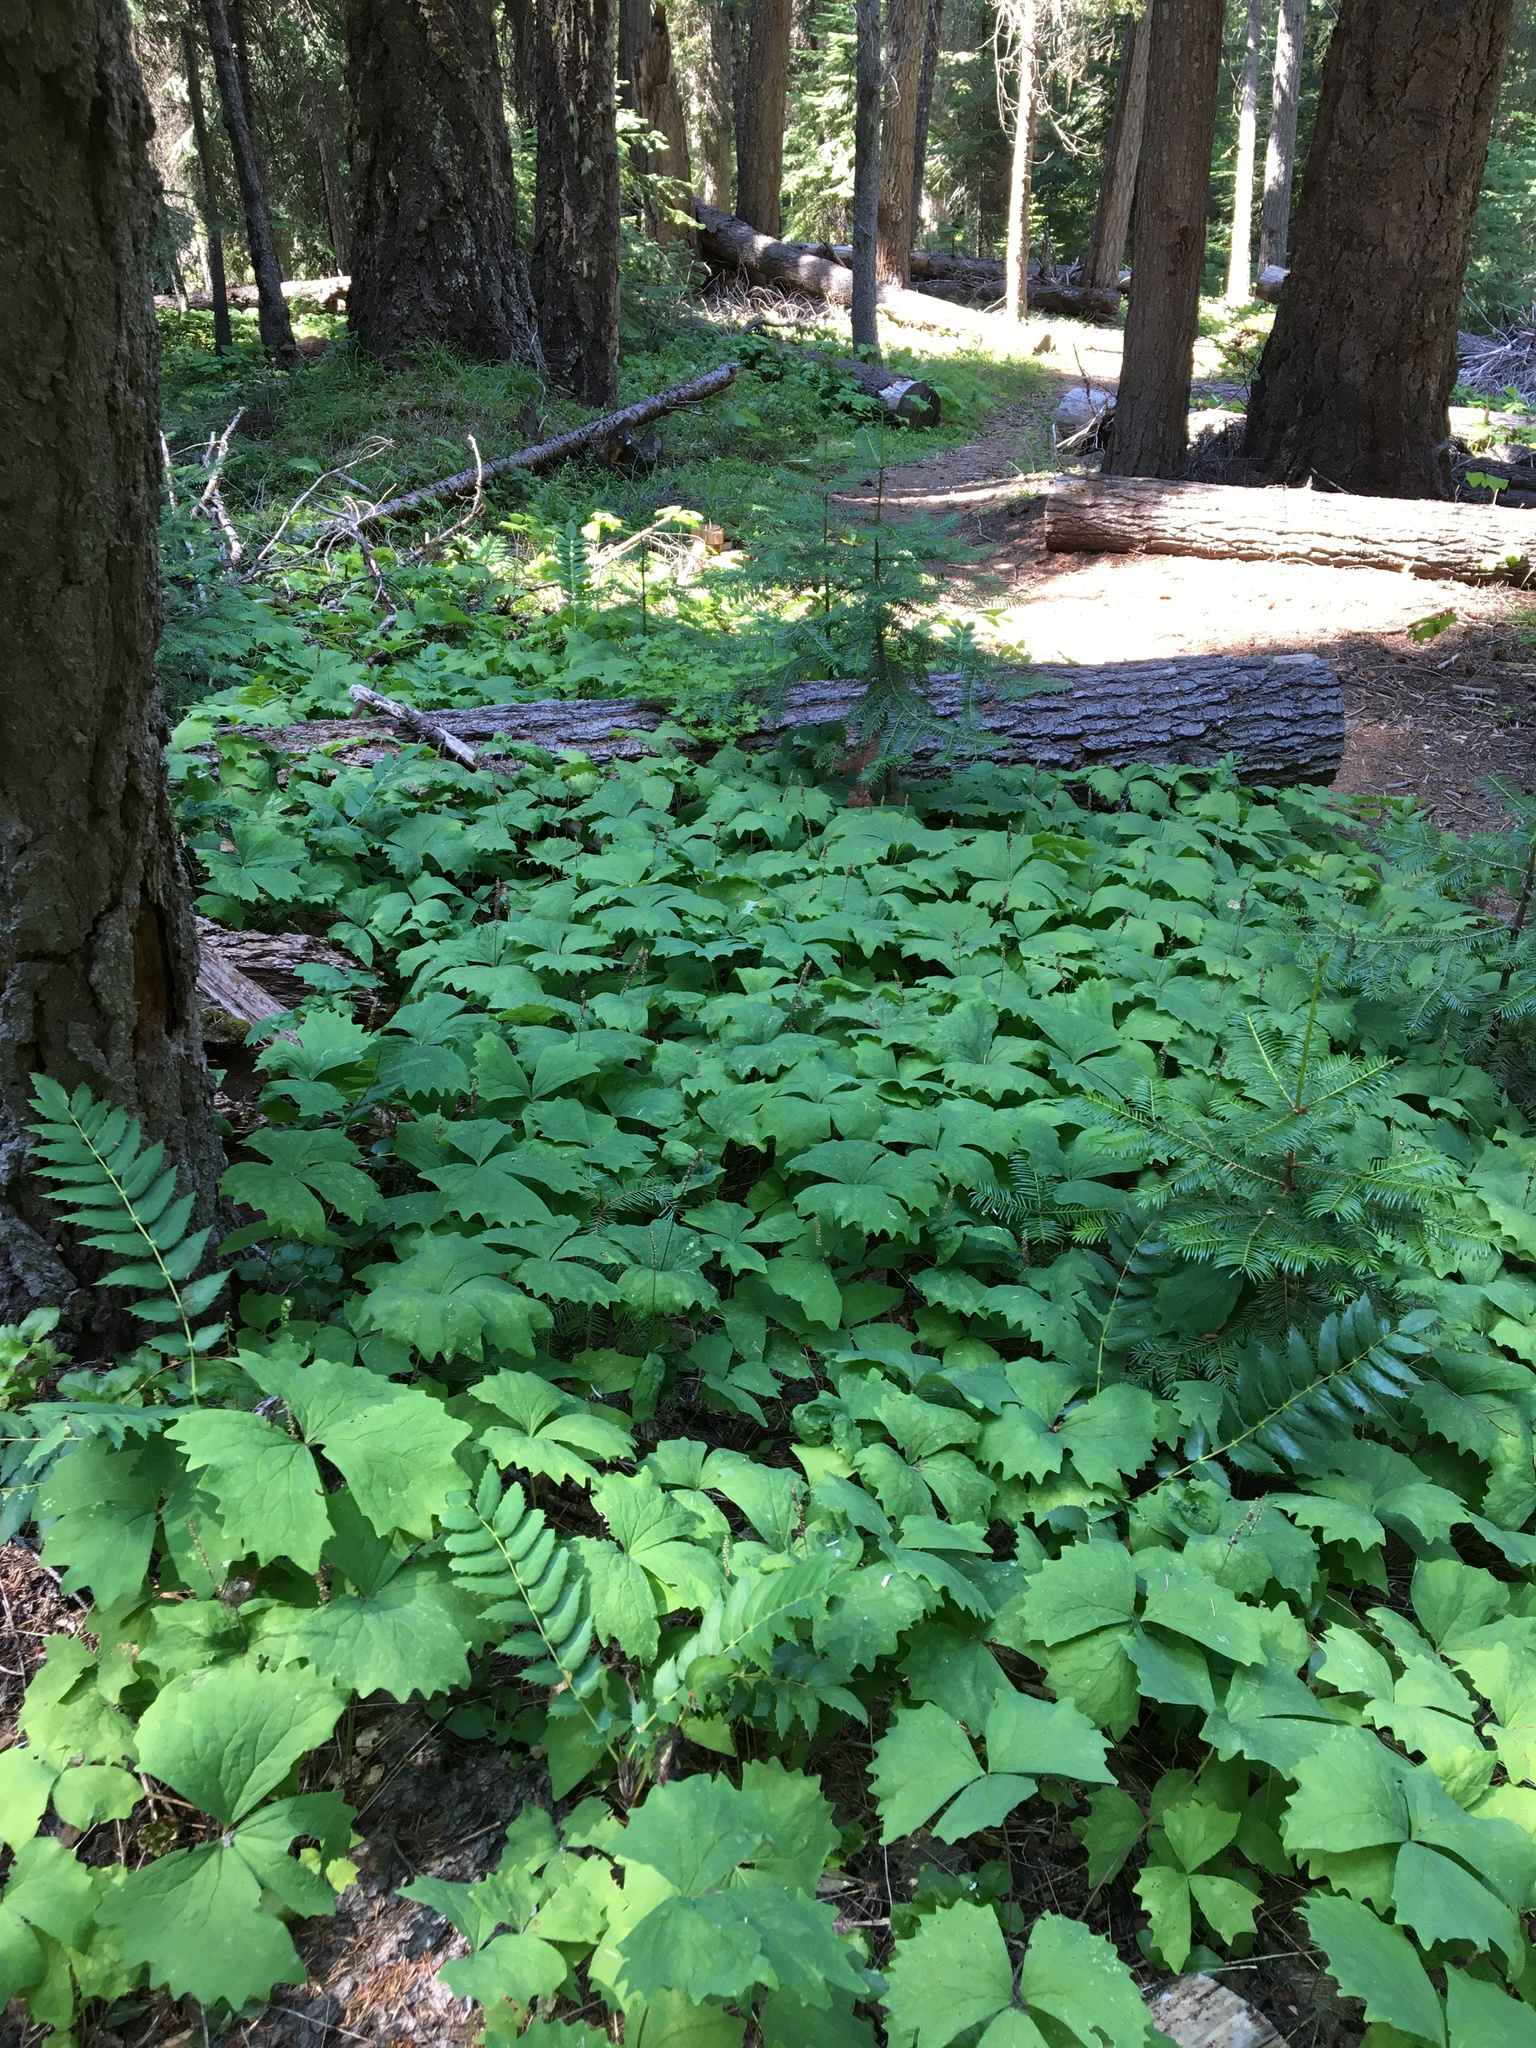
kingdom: Plantae
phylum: Tracheophyta
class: Magnoliopsida
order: Ranunculales
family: Berberidaceae
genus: Mahonia
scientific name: Mahonia nervosa
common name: Cascade oregon-grape
